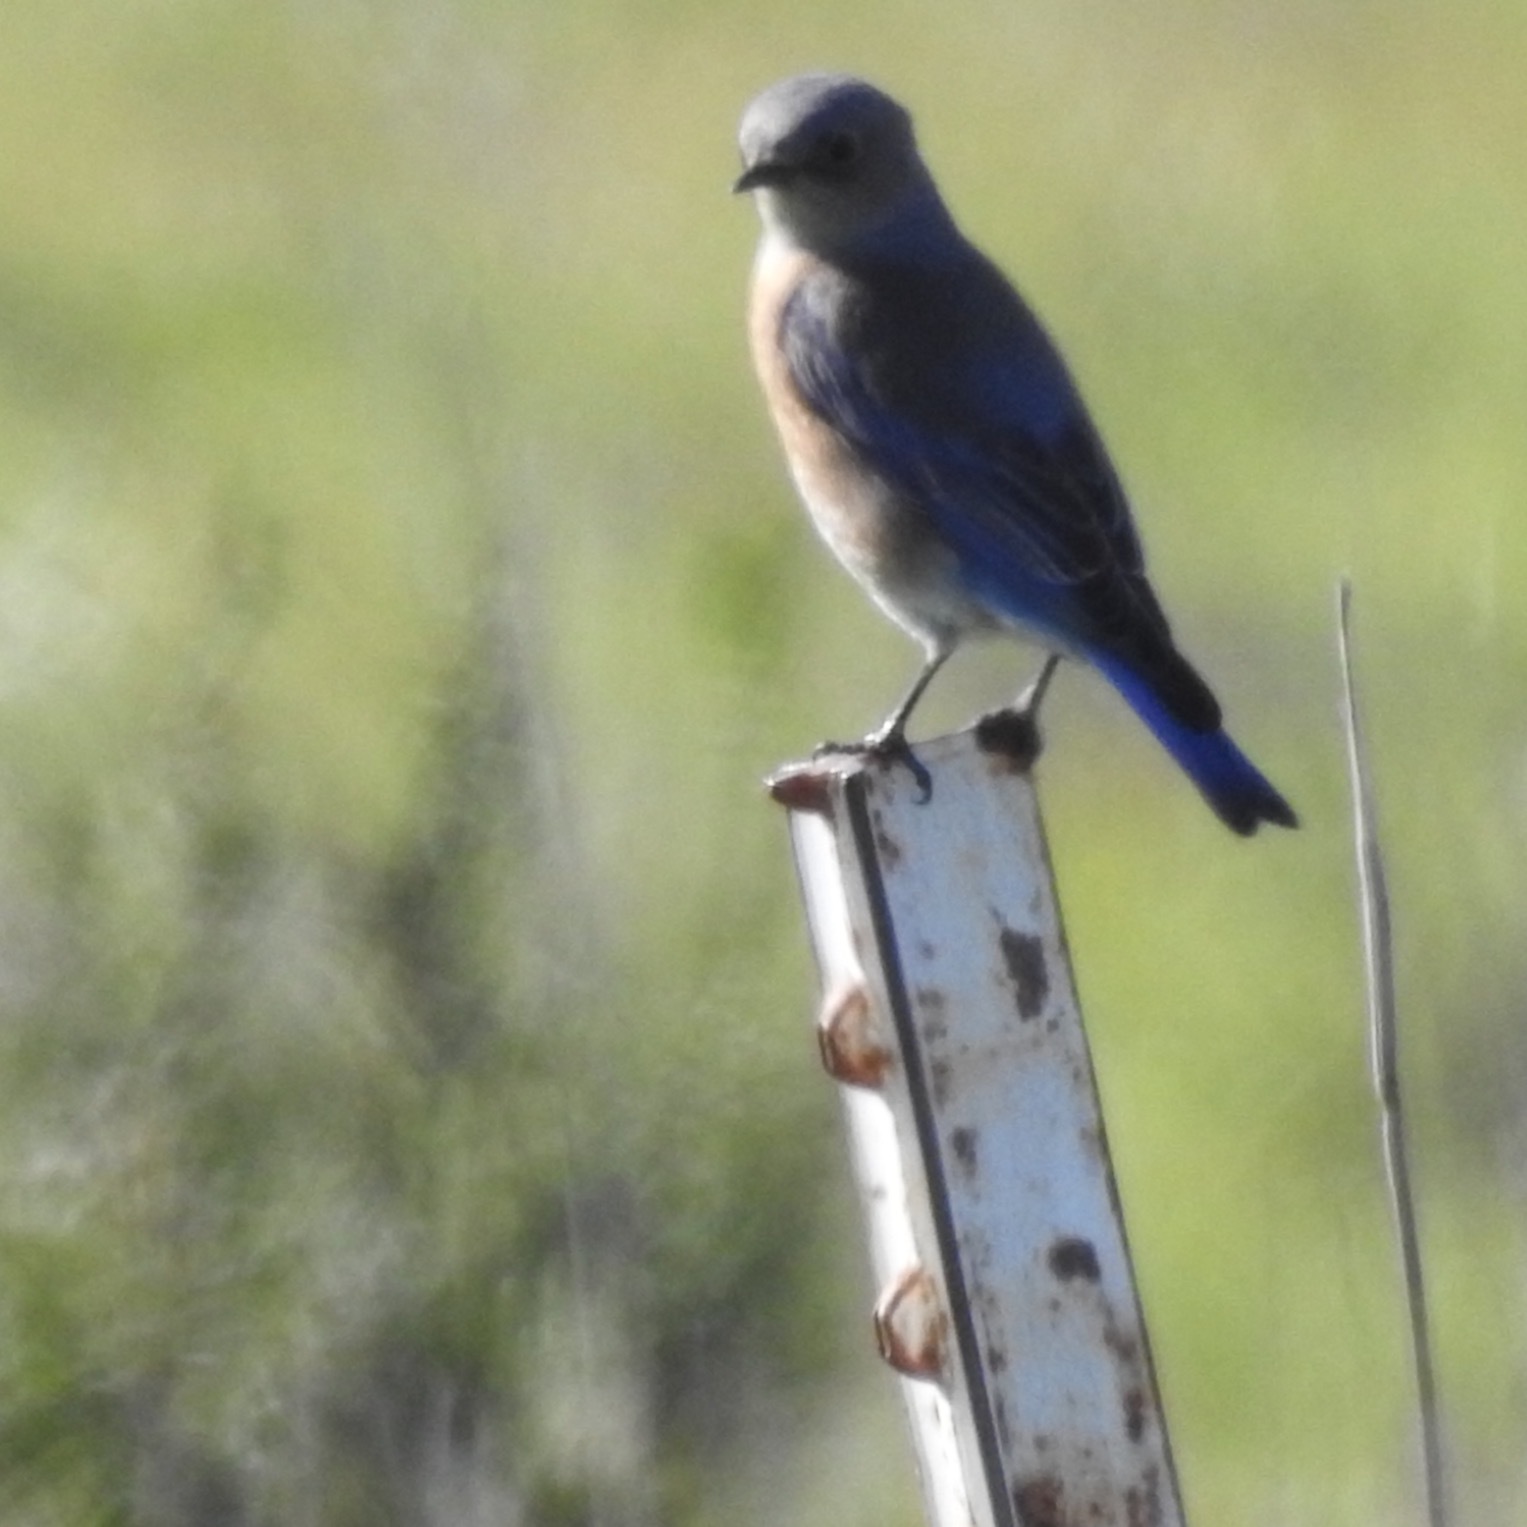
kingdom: Animalia
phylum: Chordata
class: Aves
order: Passeriformes
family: Turdidae
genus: Sialia
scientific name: Sialia mexicana
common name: Western bluebird
